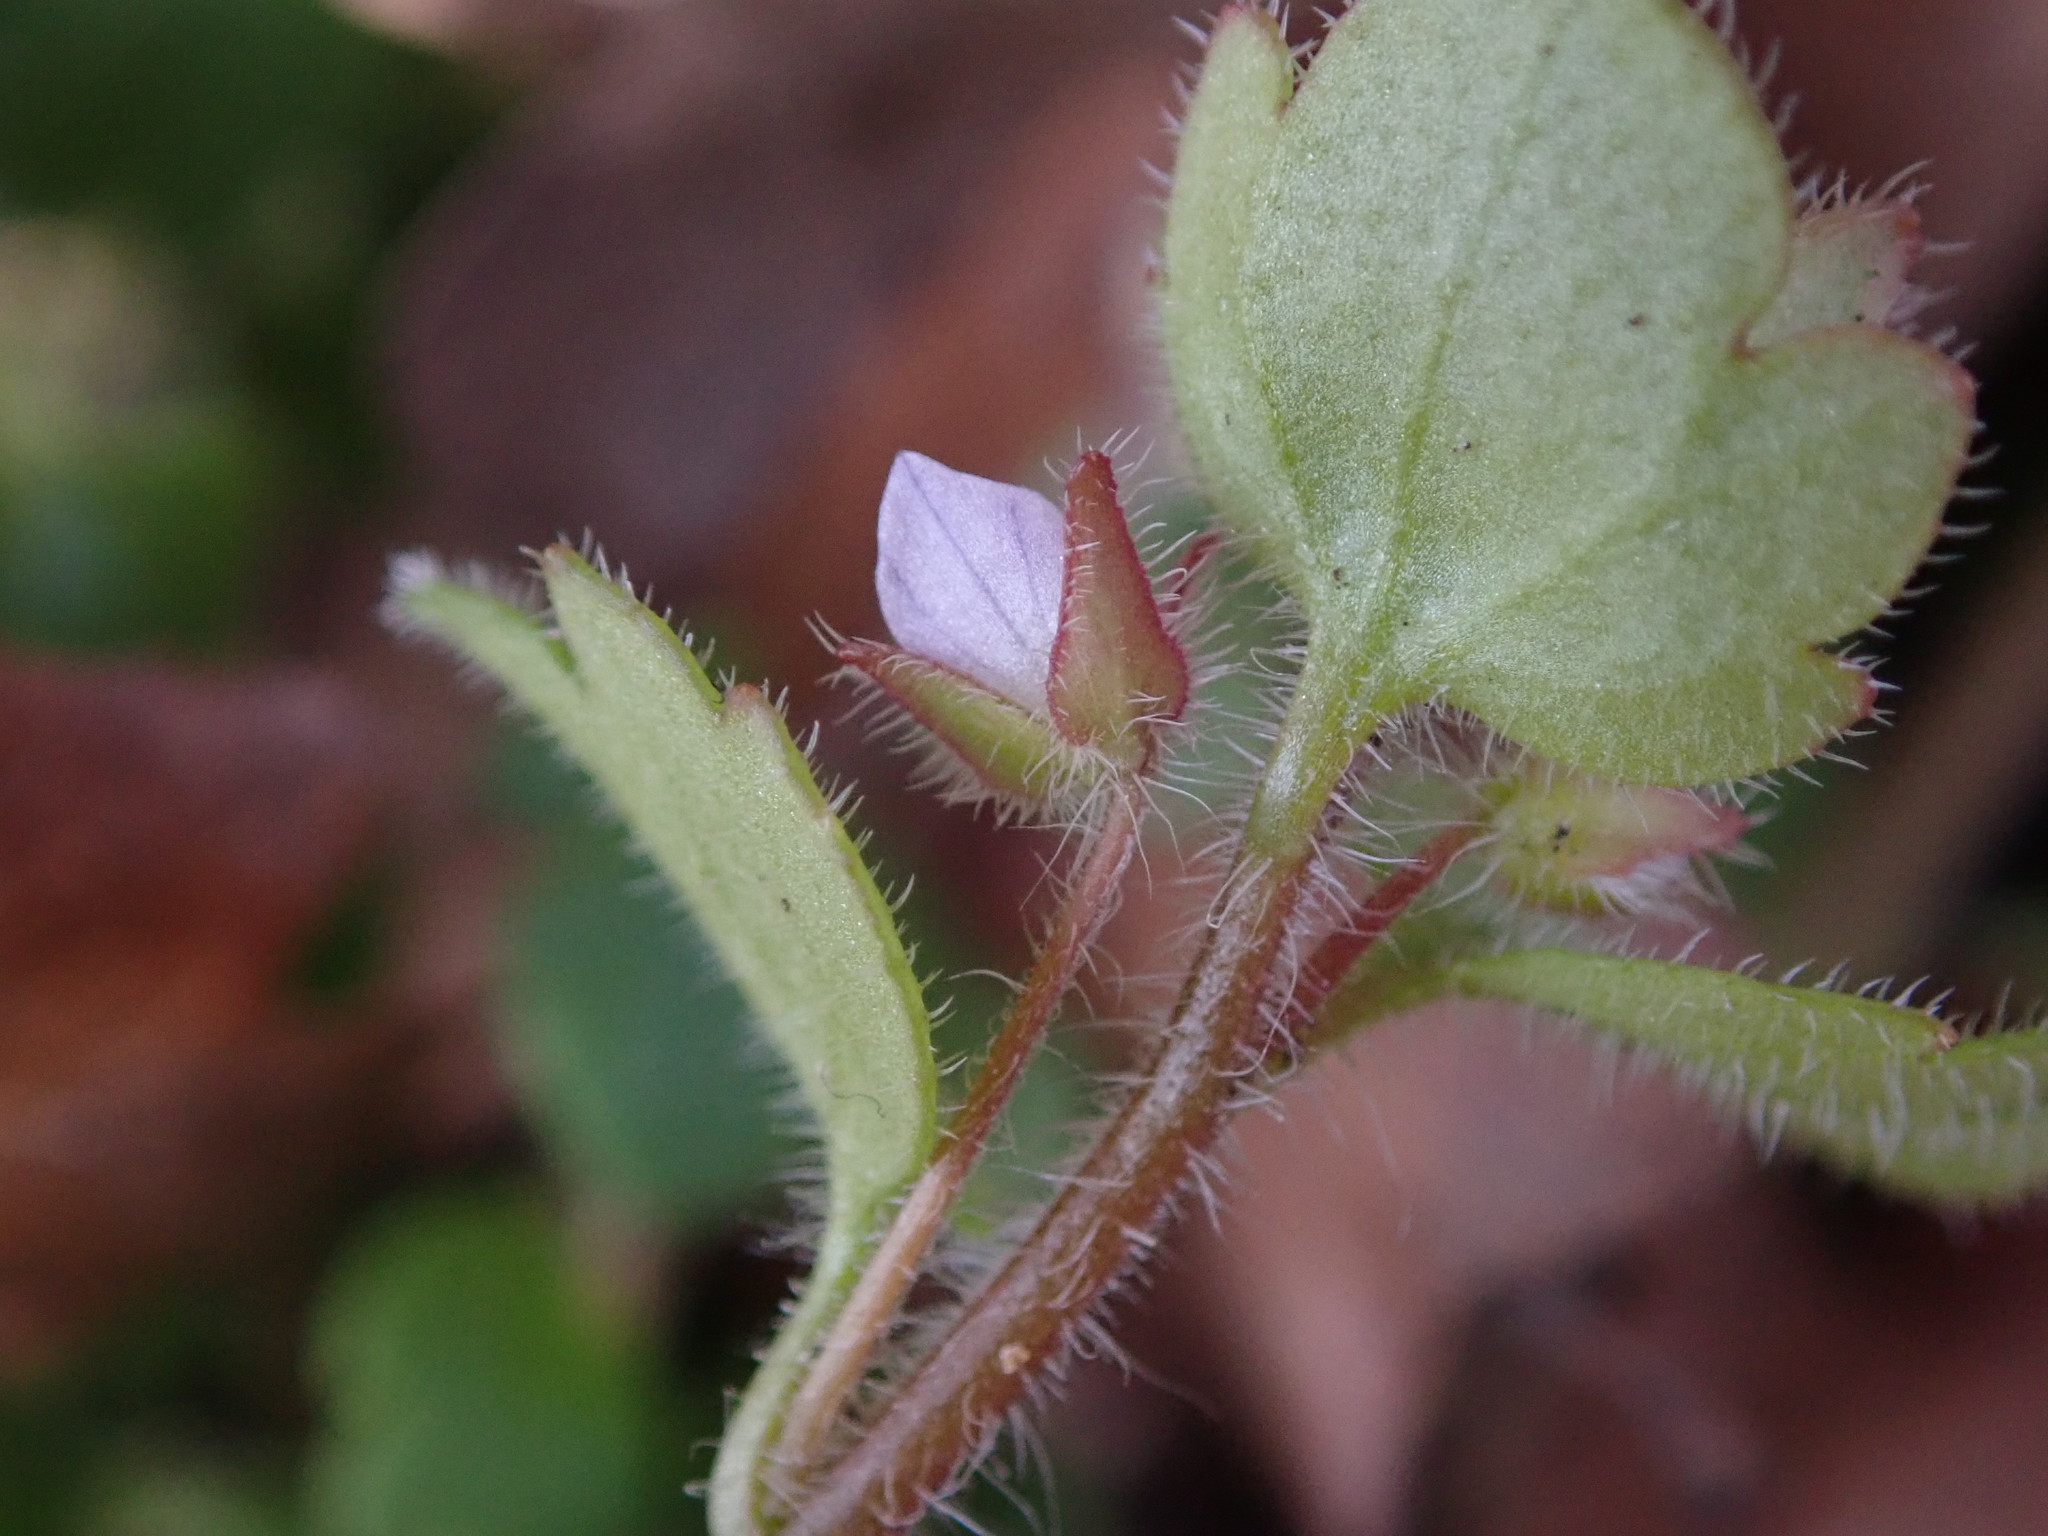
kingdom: Plantae
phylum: Tracheophyta
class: Magnoliopsida
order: Lamiales
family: Plantaginaceae
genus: Veronica
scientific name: Veronica sublobata
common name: False ivy-leaved speedwell
